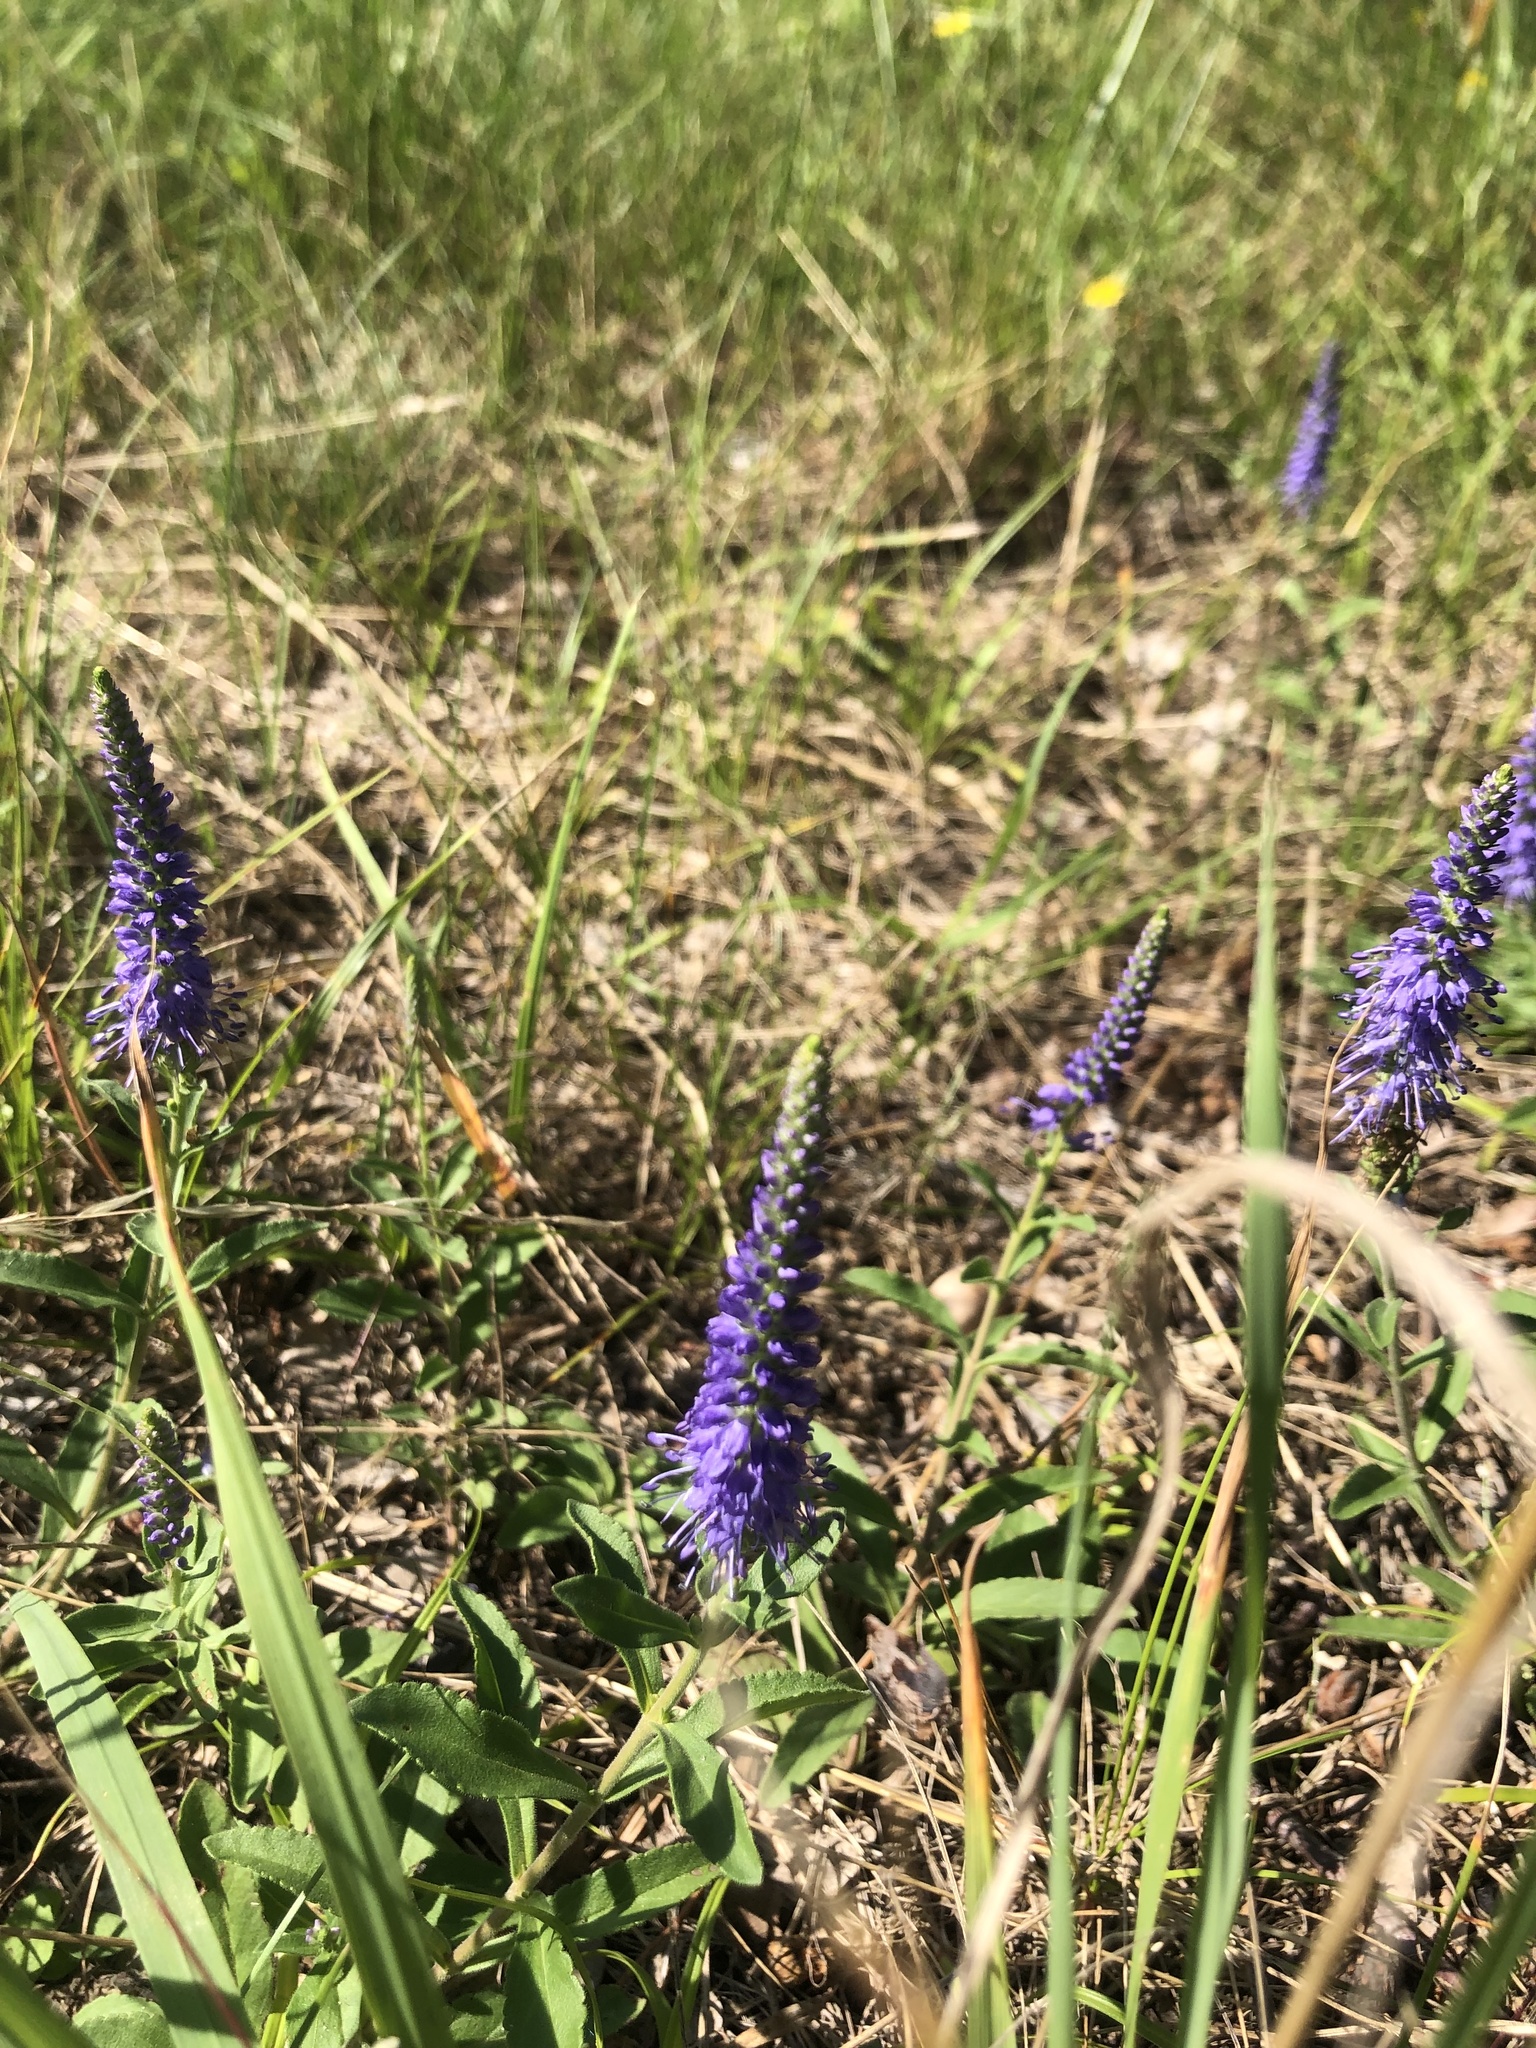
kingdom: Plantae
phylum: Tracheophyta
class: Magnoliopsida
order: Lamiales
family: Plantaginaceae
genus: Veronica
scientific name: Veronica spicata
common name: Spiked speedwell
